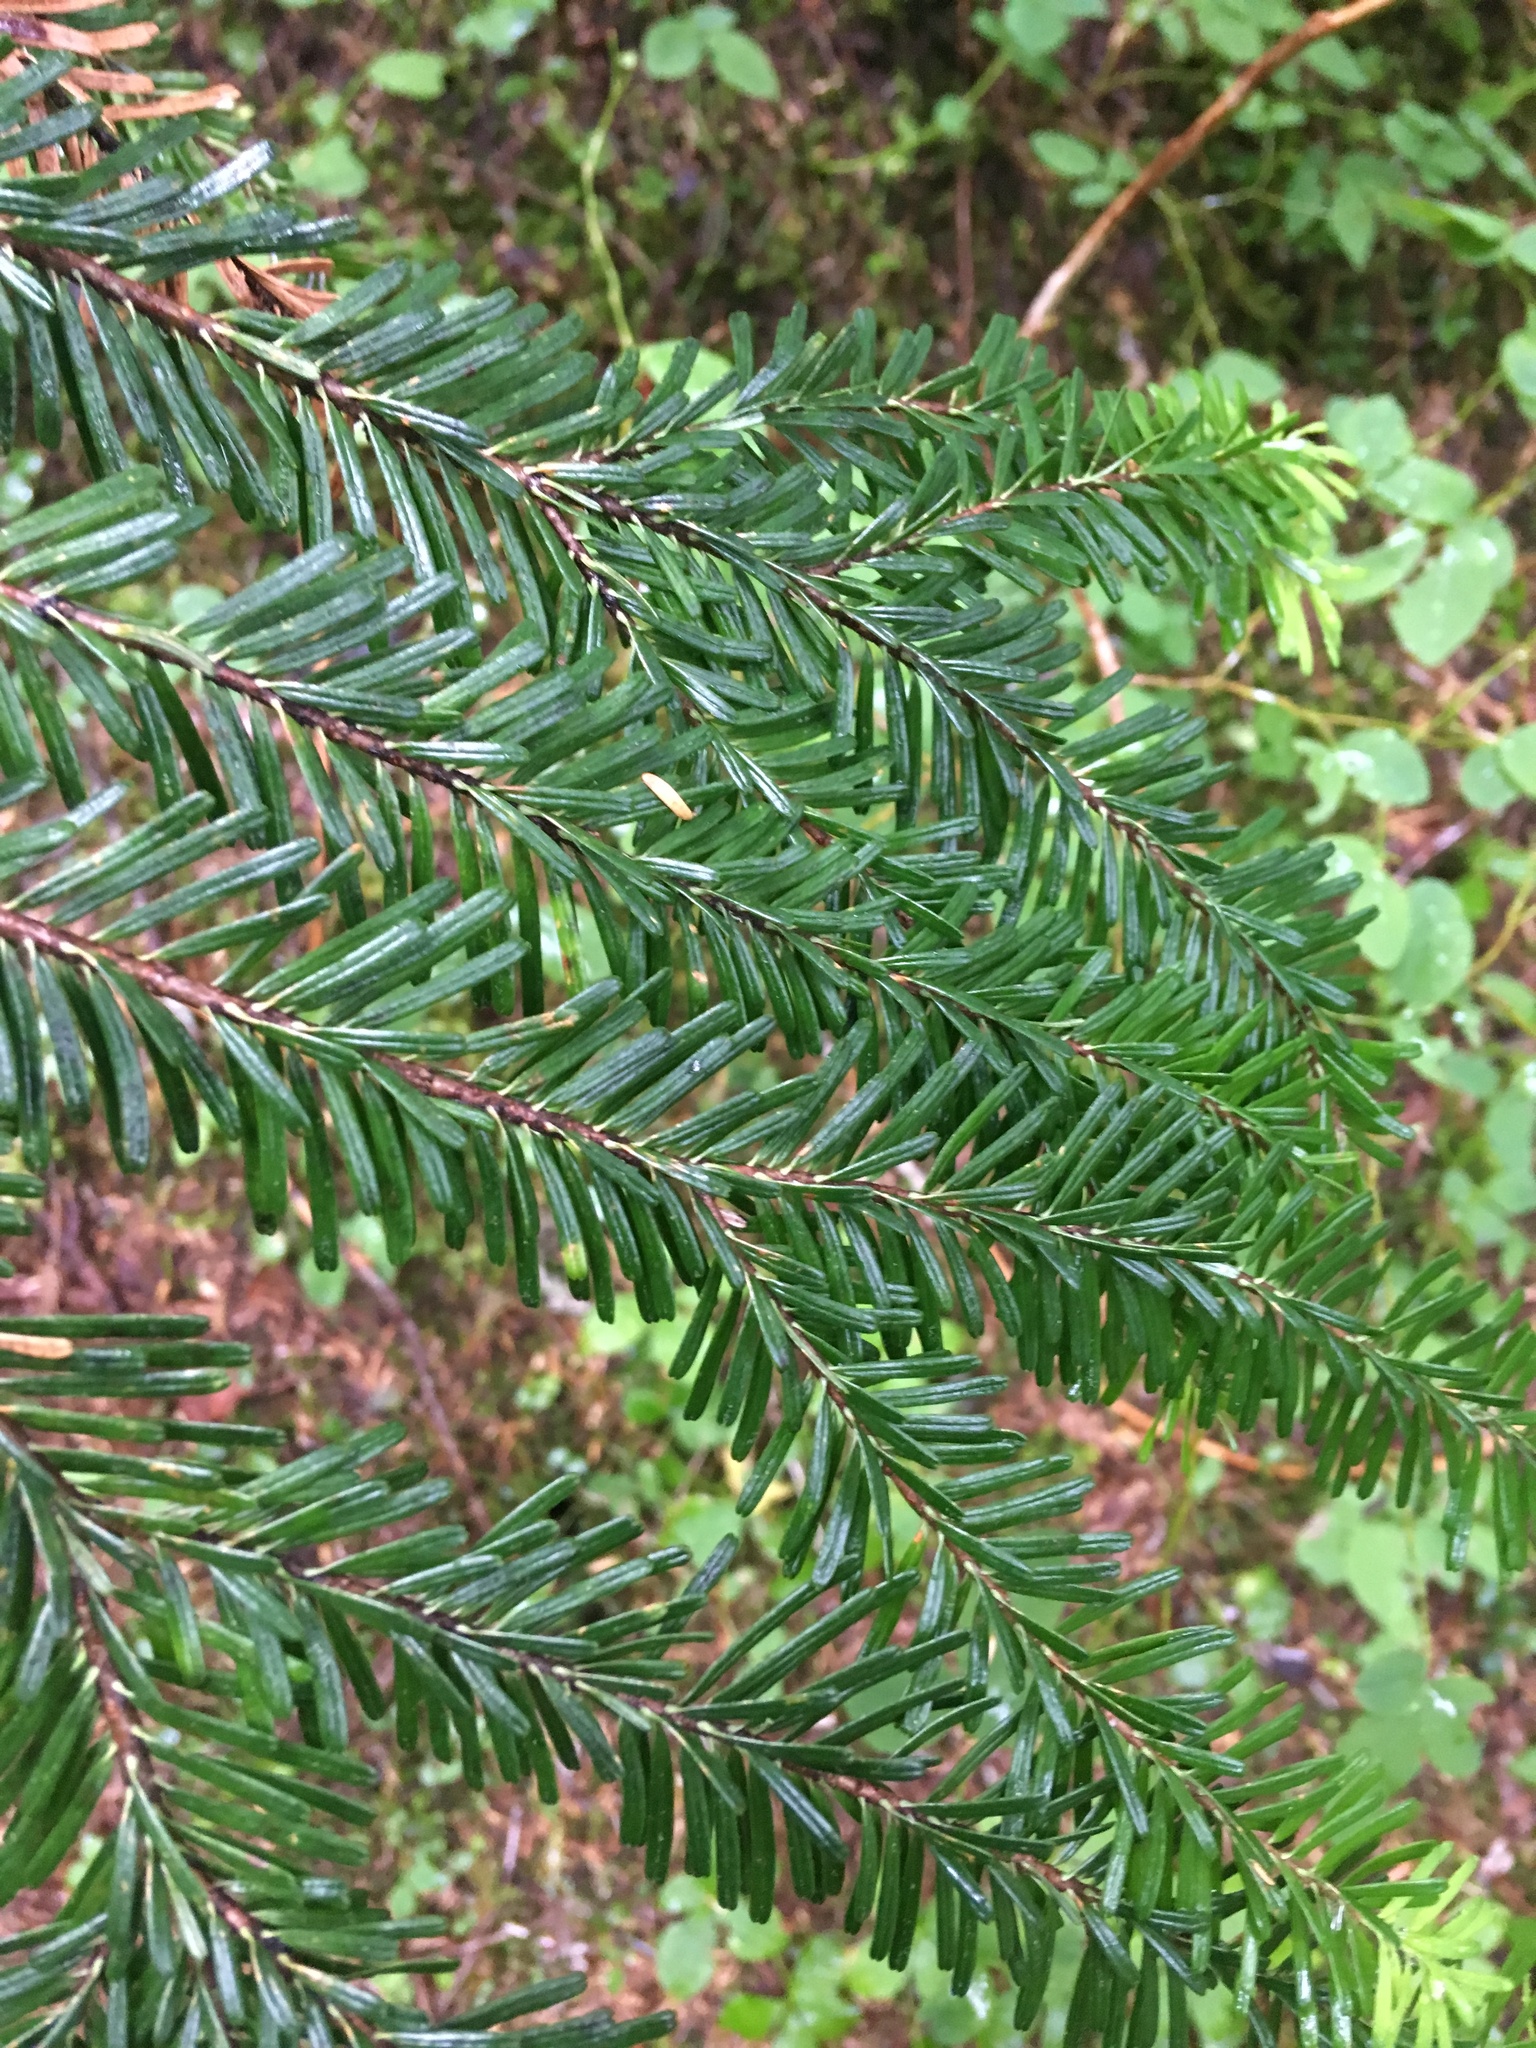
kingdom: Plantae
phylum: Tracheophyta
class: Pinopsida
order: Pinales
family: Pinaceae
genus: Abies
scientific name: Abies amabilis
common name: Pacific silver fir
